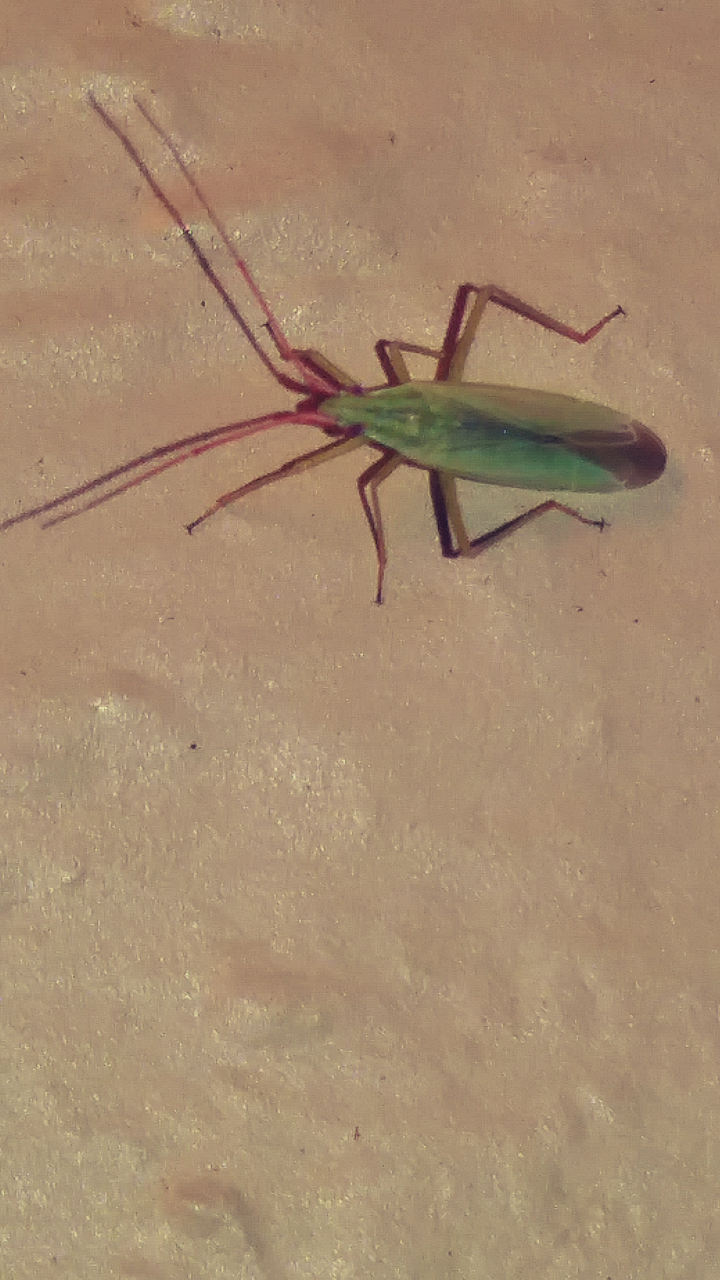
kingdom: Animalia
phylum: Arthropoda
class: Insecta
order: Hemiptera
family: Miridae
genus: Trigonotylus
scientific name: Trigonotylus caelestialium
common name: Rice leaf bug
